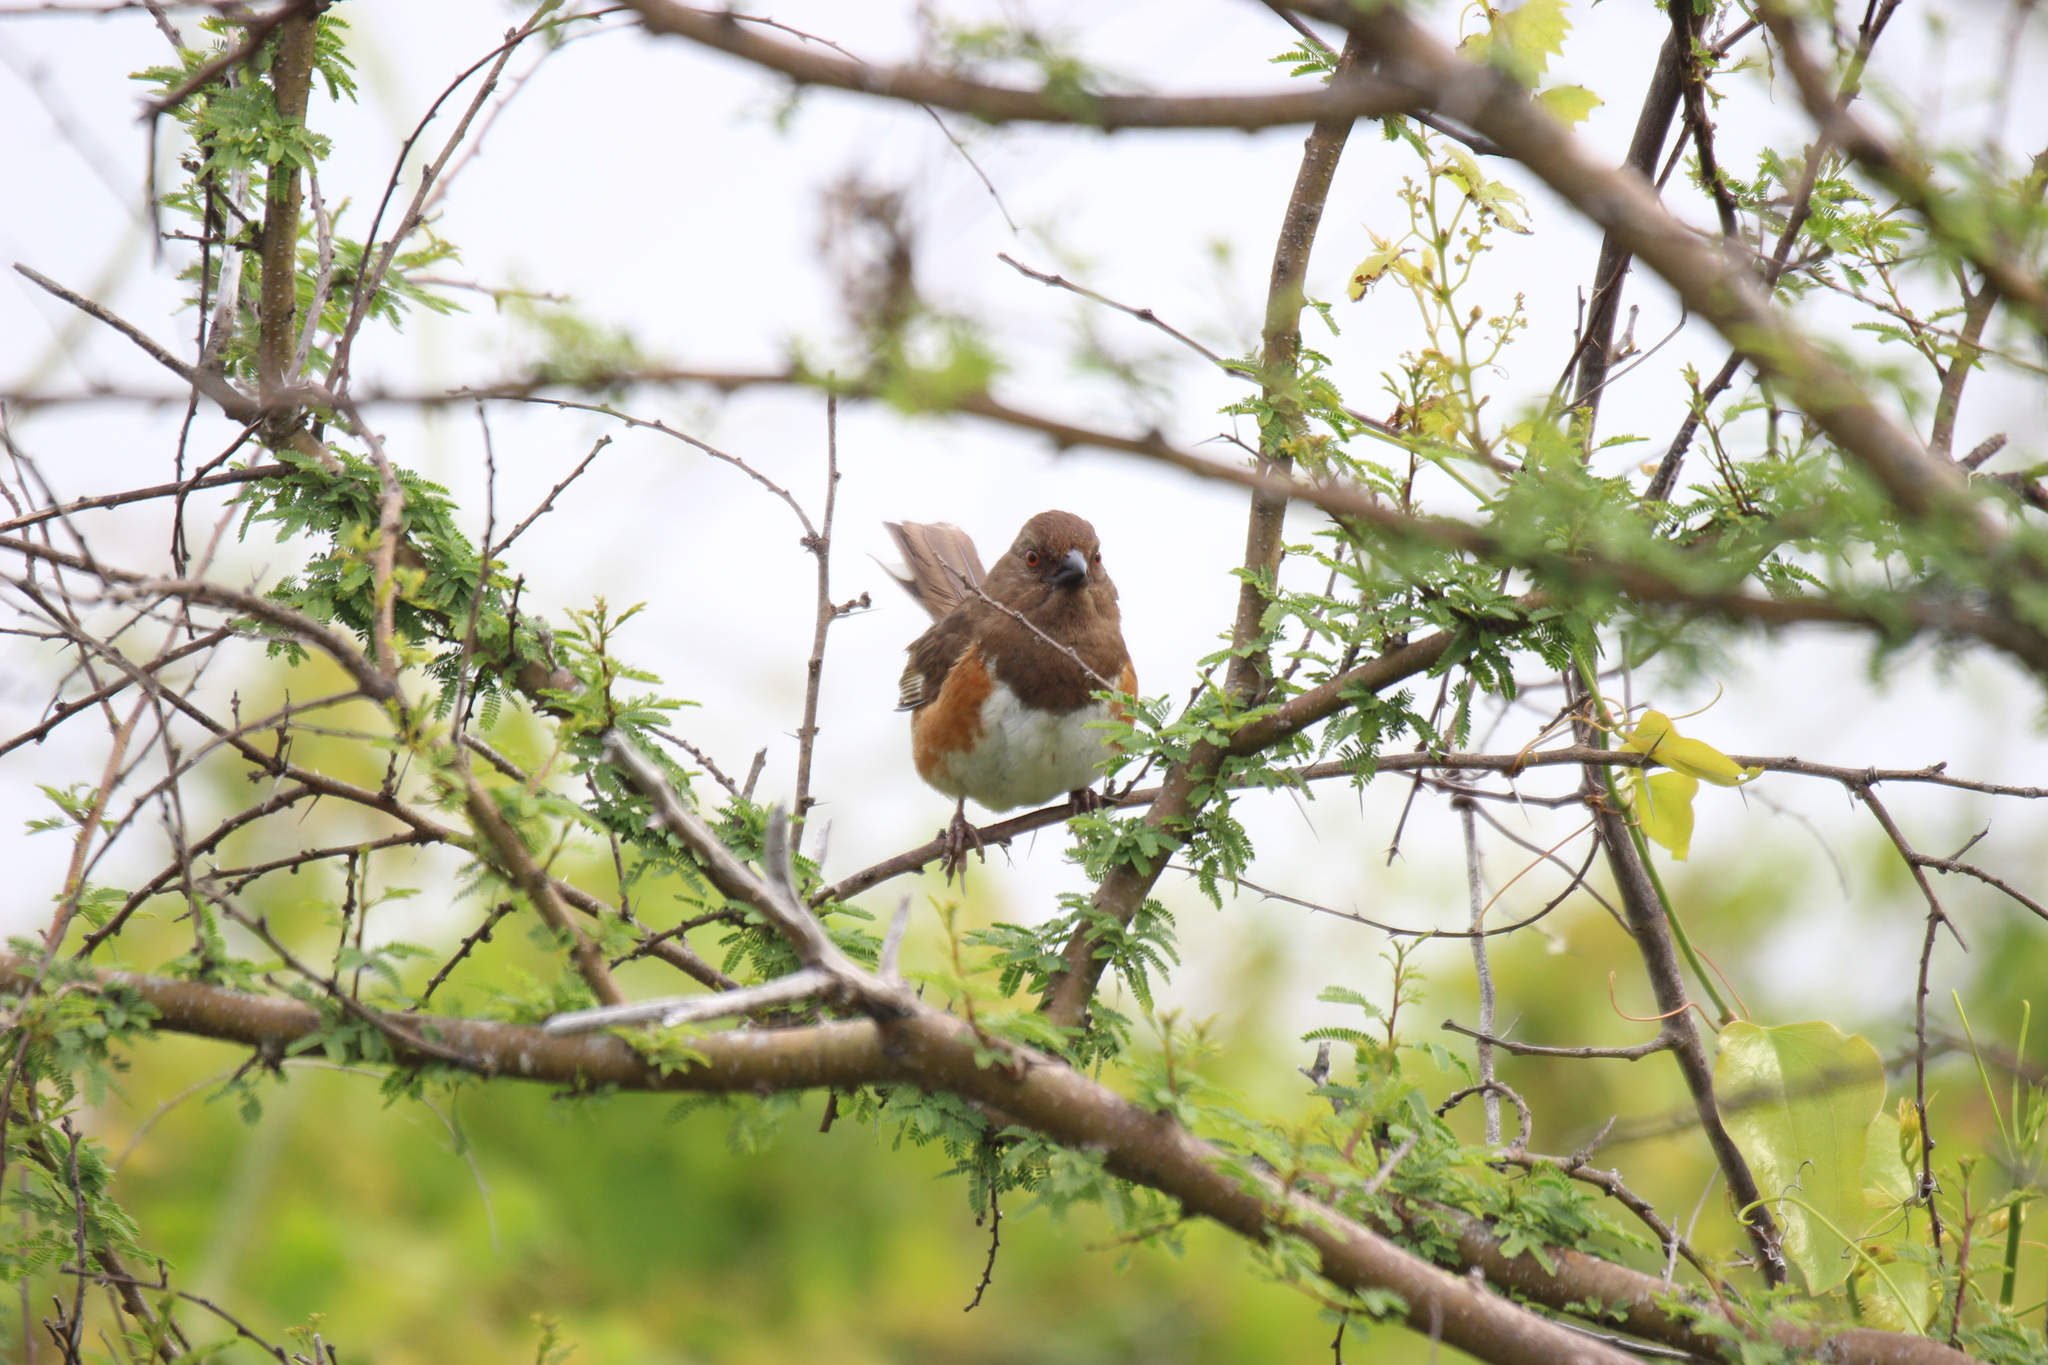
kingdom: Animalia
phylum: Chordata
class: Aves
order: Passeriformes
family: Passerellidae
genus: Pipilo
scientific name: Pipilo erythrophthalmus
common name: Eastern towhee
